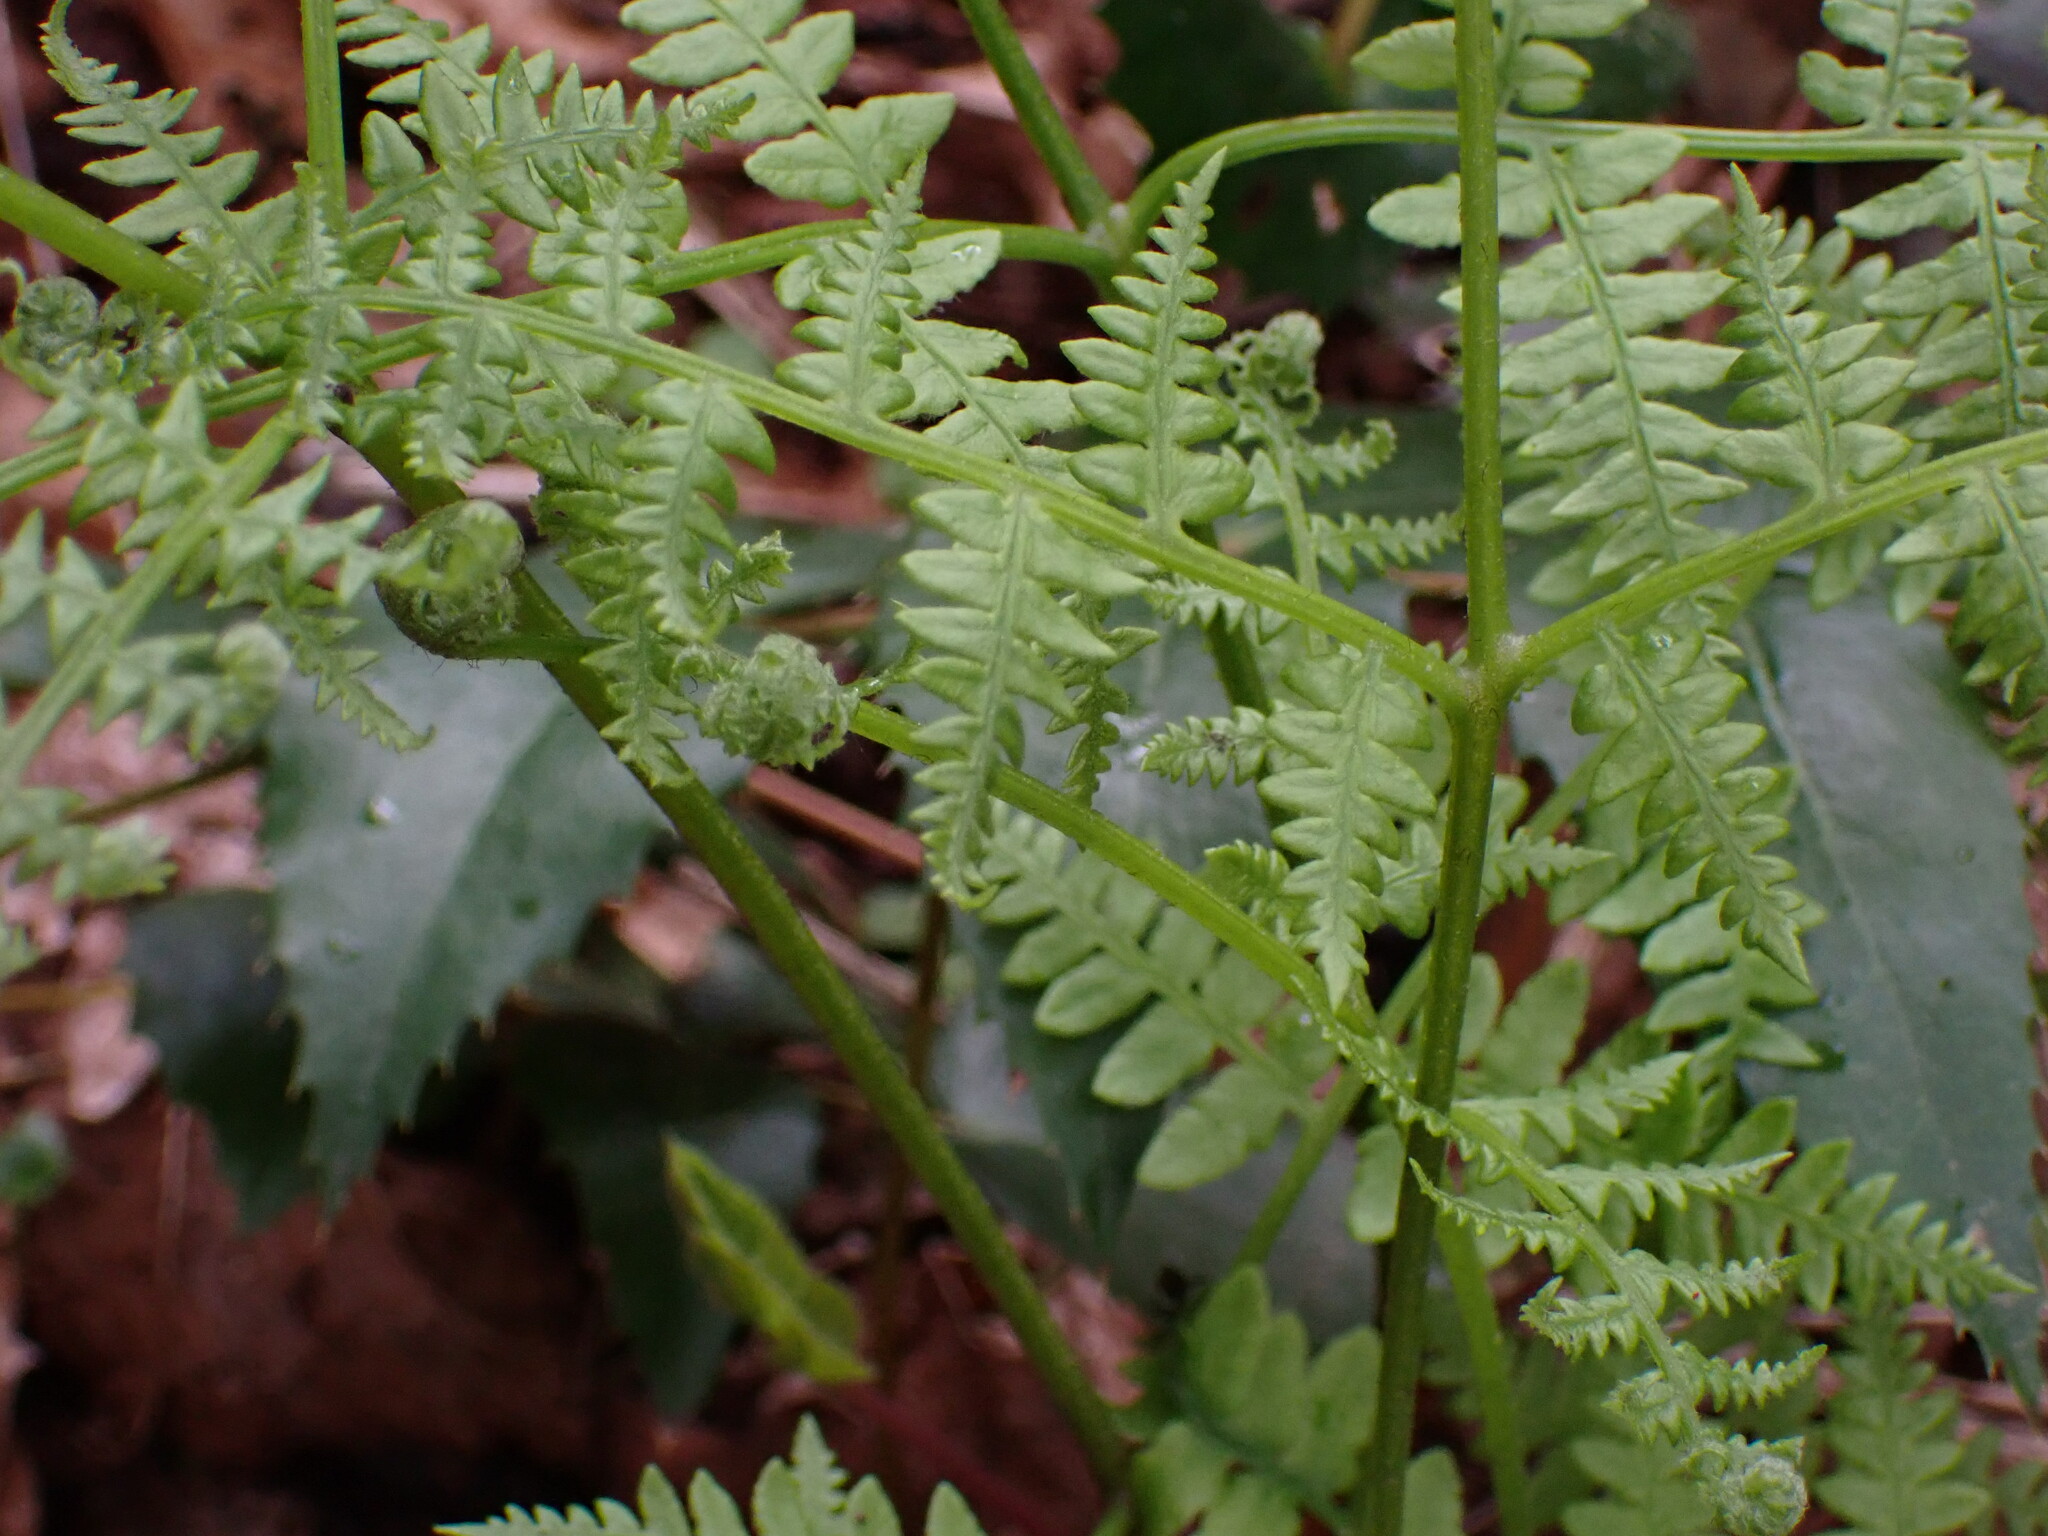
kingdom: Plantae
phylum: Tracheophyta
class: Polypodiopsida
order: Polypodiales
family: Dennstaedtiaceae
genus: Pteridium
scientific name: Pteridium aquilinum
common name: Bracken
